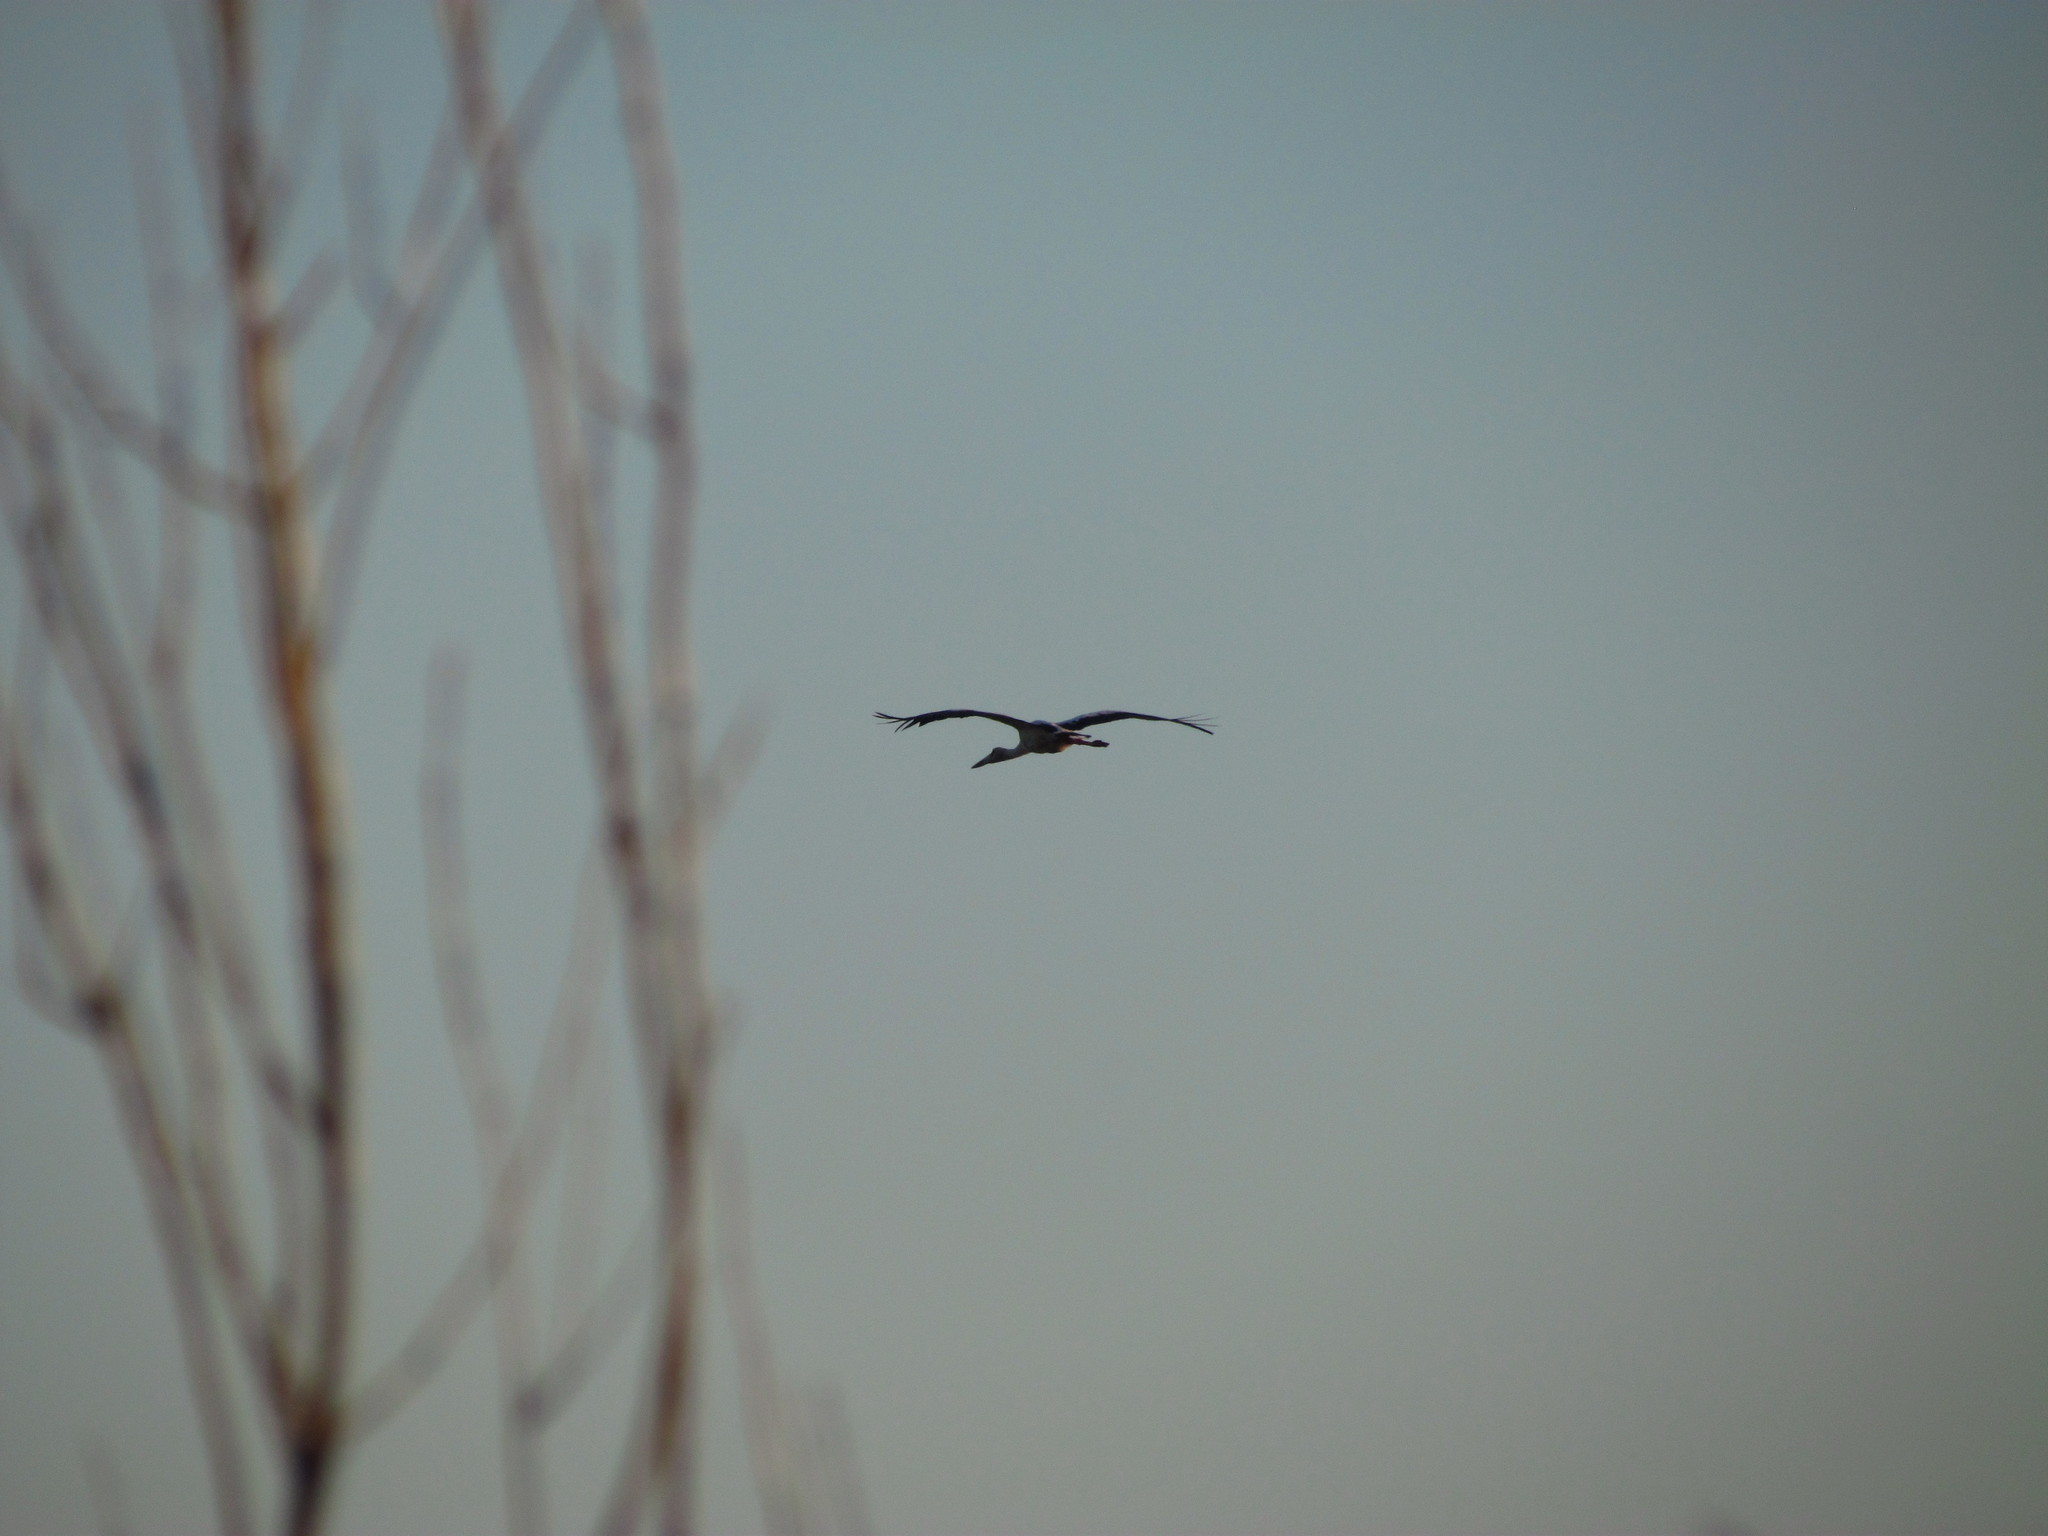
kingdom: Animalia
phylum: Chordata
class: Aves
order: Ciconiiformes
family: Ciconiidae
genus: Ciconia
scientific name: Ciconia maguari
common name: Maguari stork
